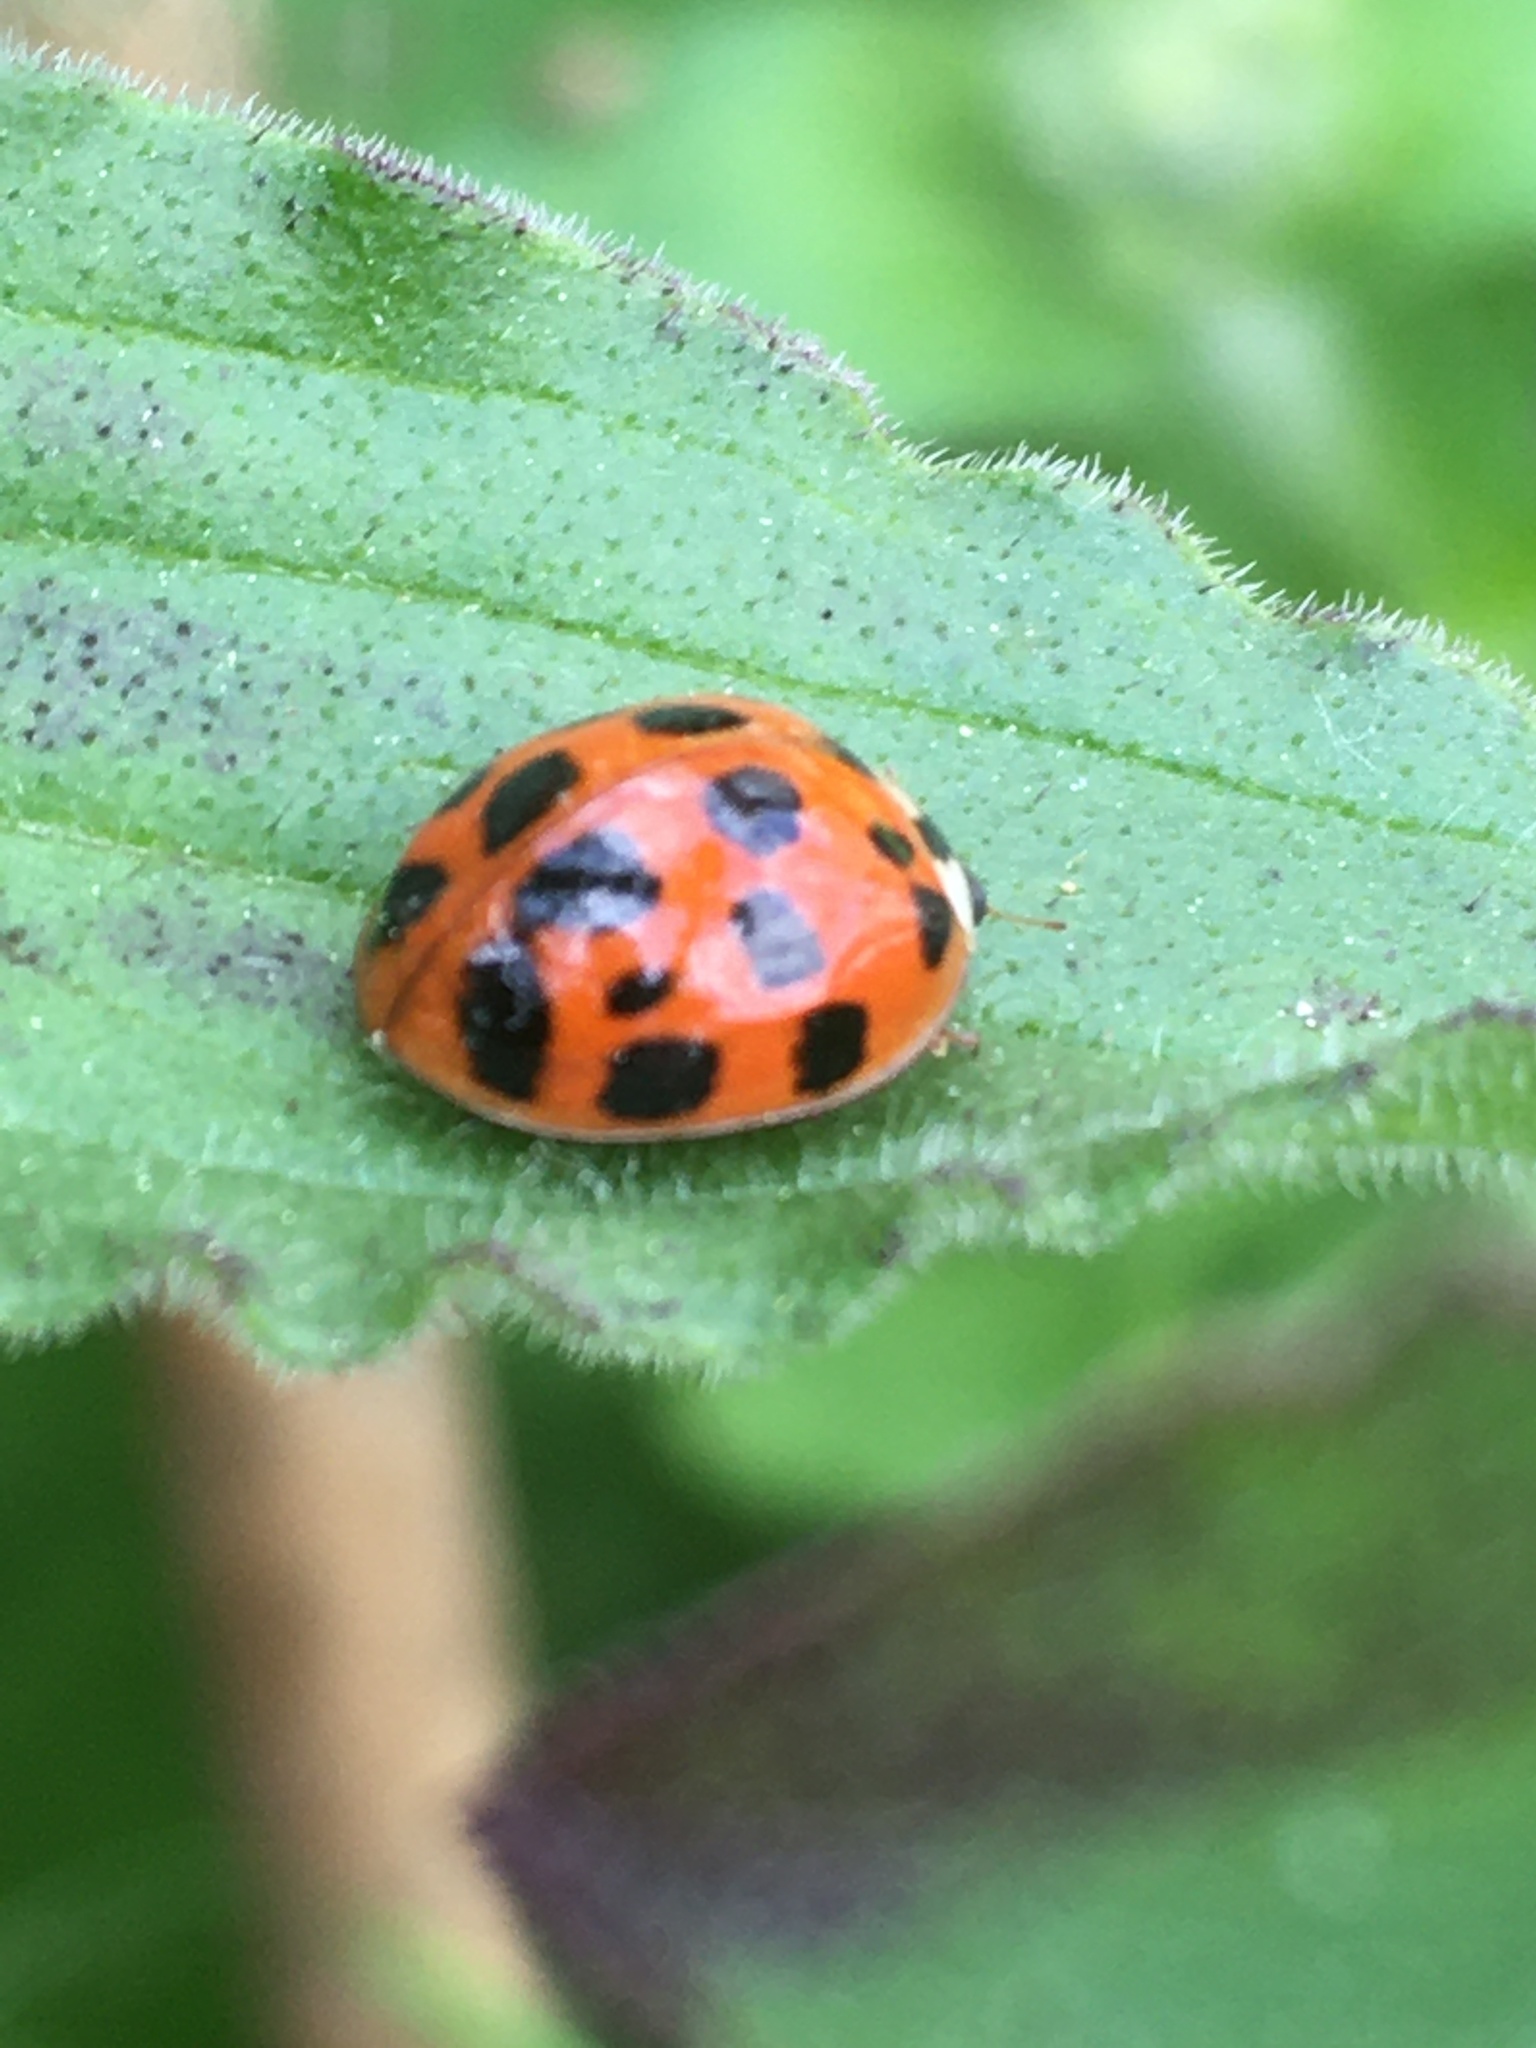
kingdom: Animalia
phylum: Arthropoda
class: Insecta
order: Coleoptera
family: Coccinellidae
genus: Harmonia
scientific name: Harmonia axyridis
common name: Harlequin ladybird
